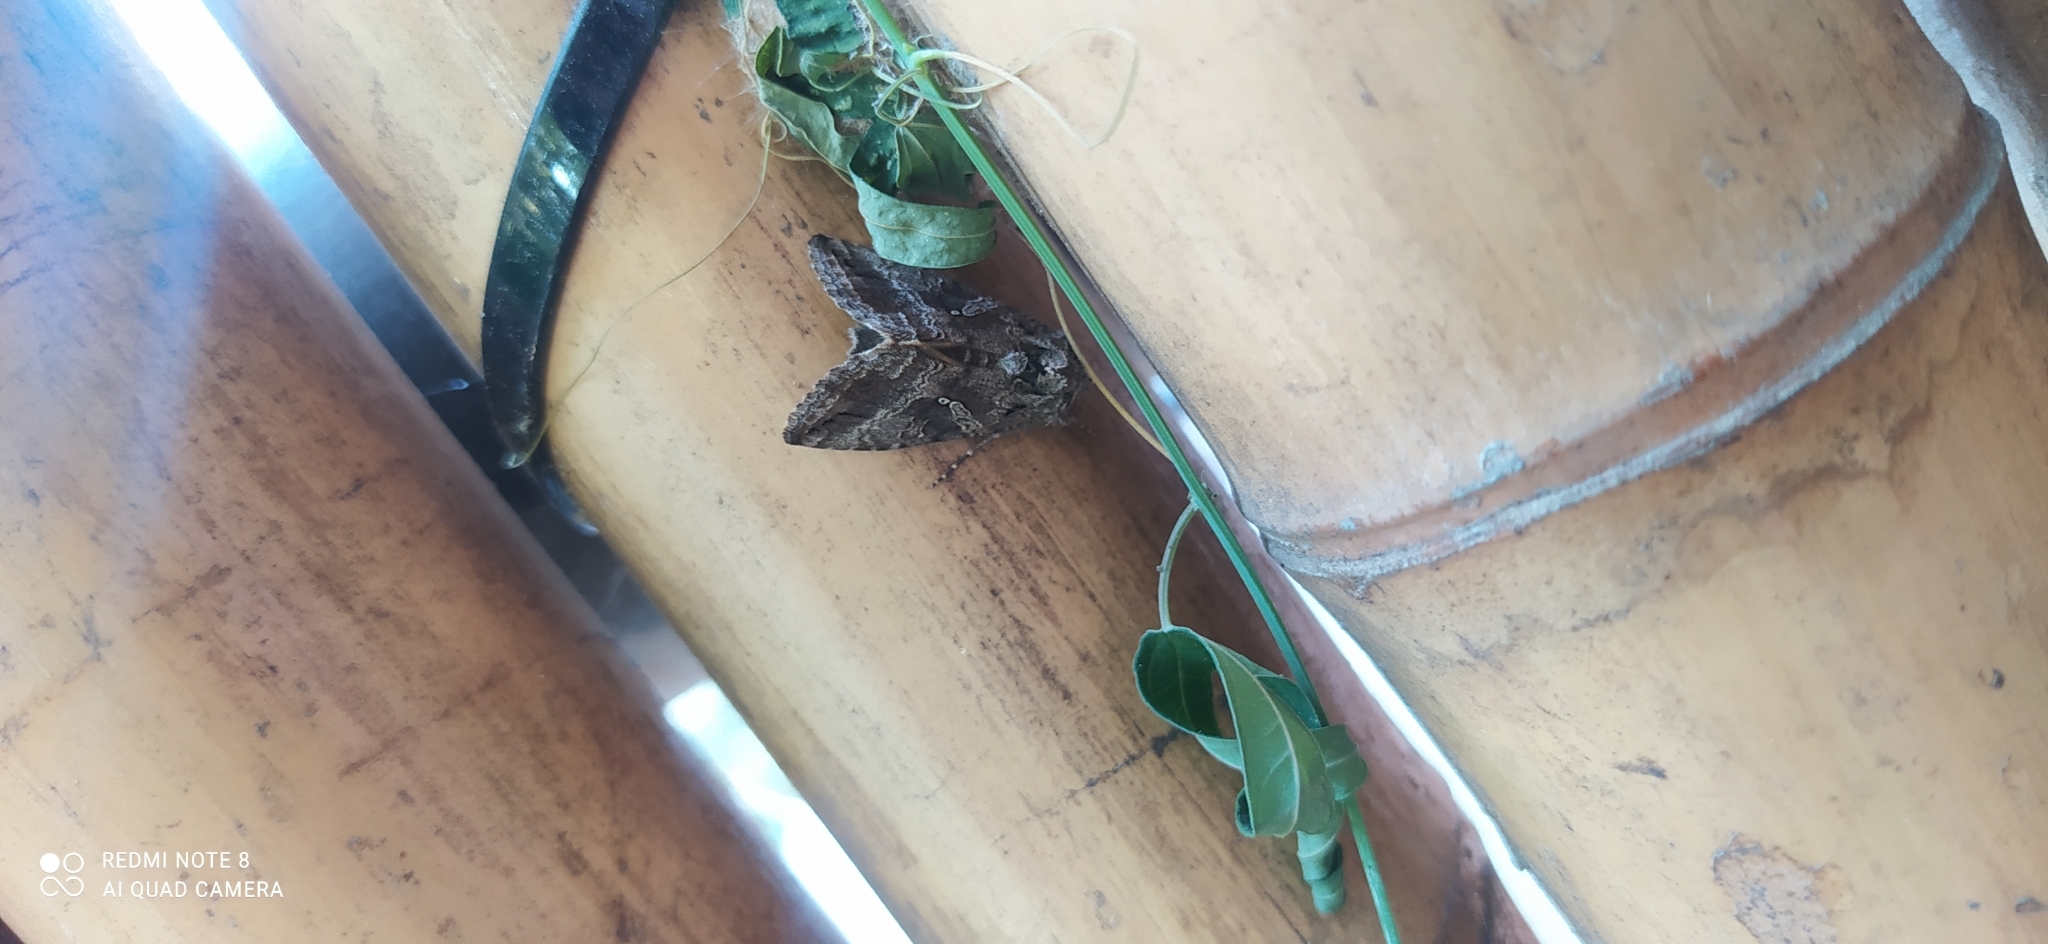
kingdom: Animalia
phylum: Arthropoda
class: Insecta
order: Lepidoptera
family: Noctuidae
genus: Rachiplusia
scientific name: Rachiplusia nu
